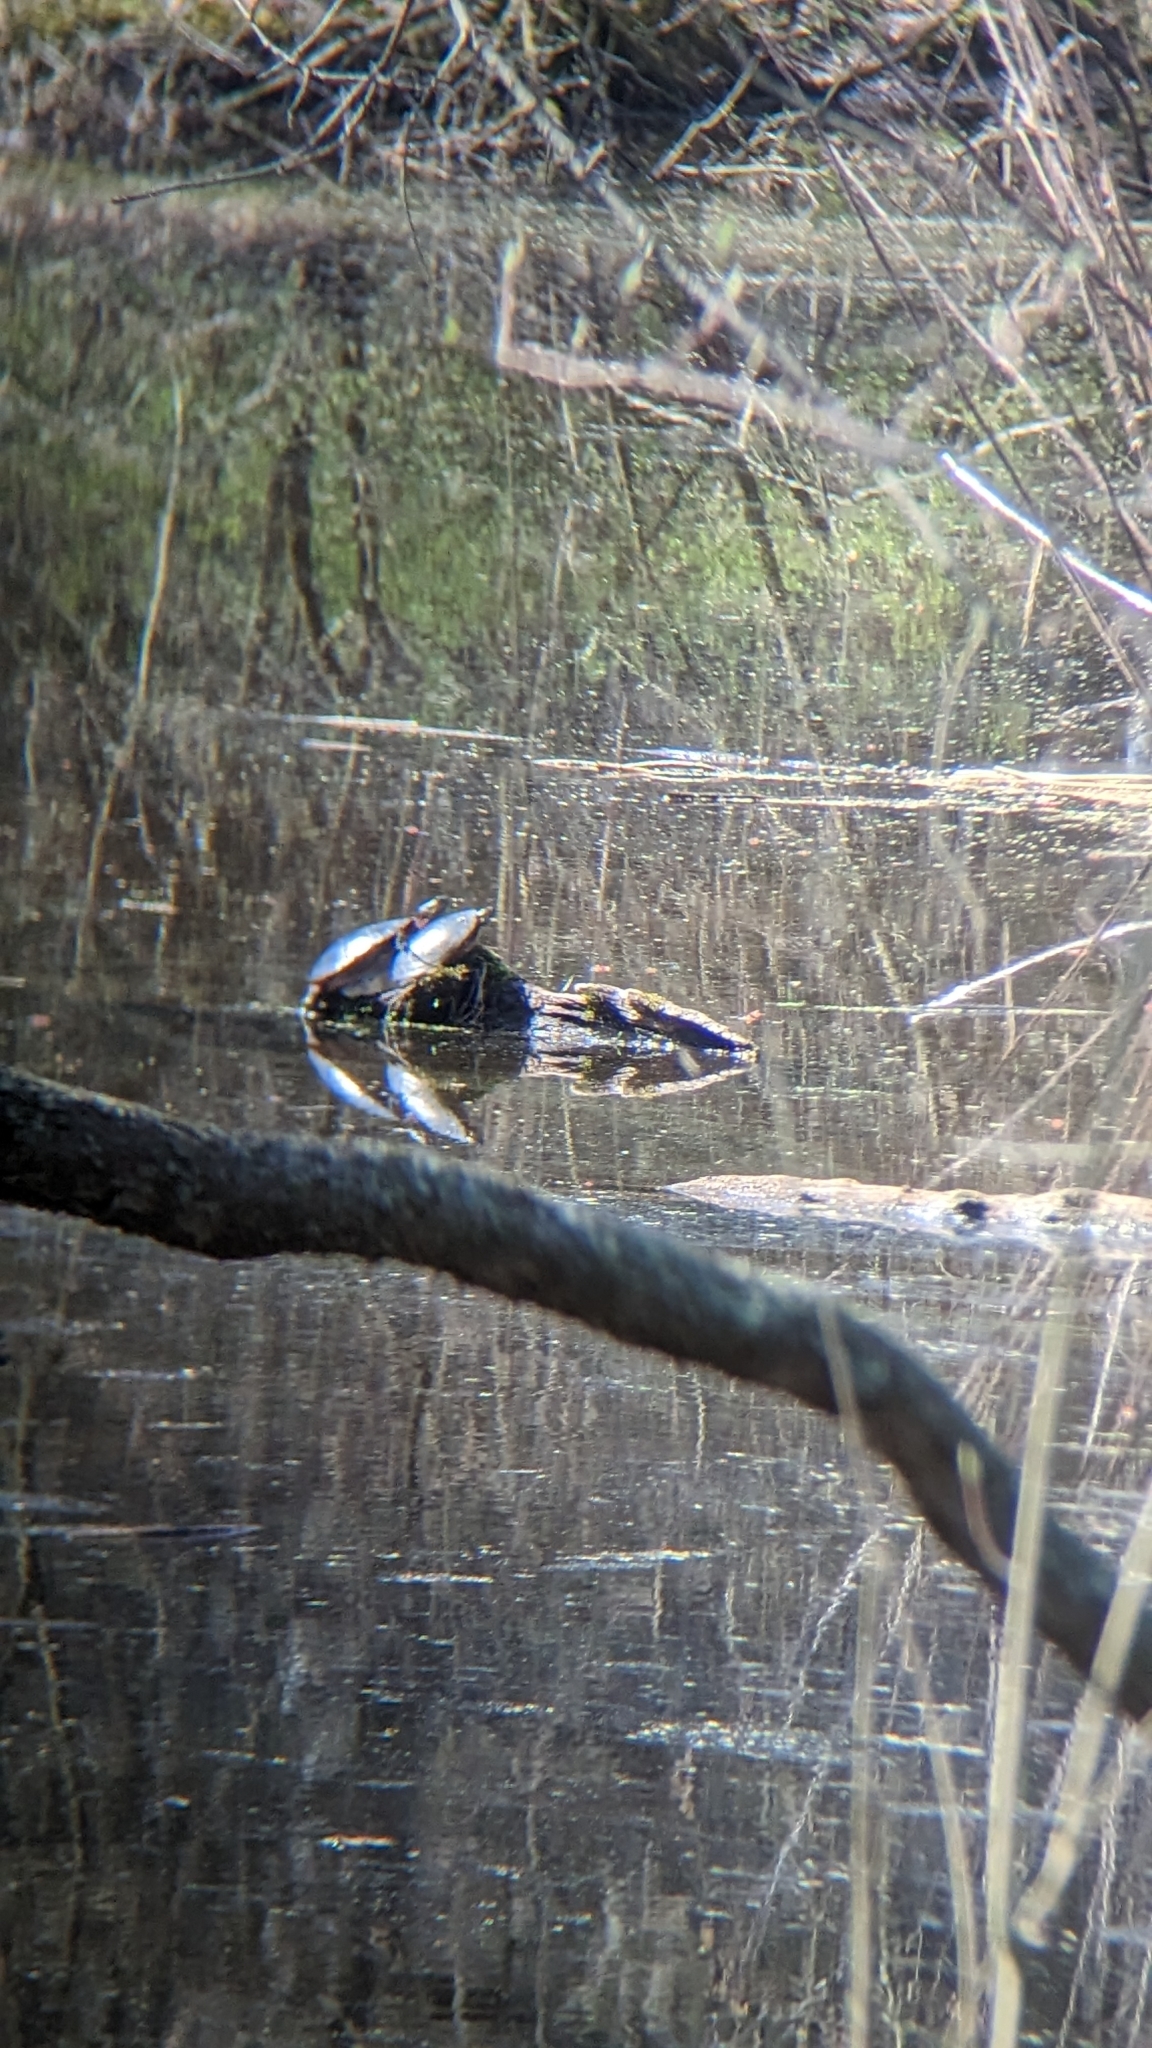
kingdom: Animalia
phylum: Chordata
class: Testudines
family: Emydidae
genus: Chrysemys
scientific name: Chrysemys picta
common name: Painted turtle
